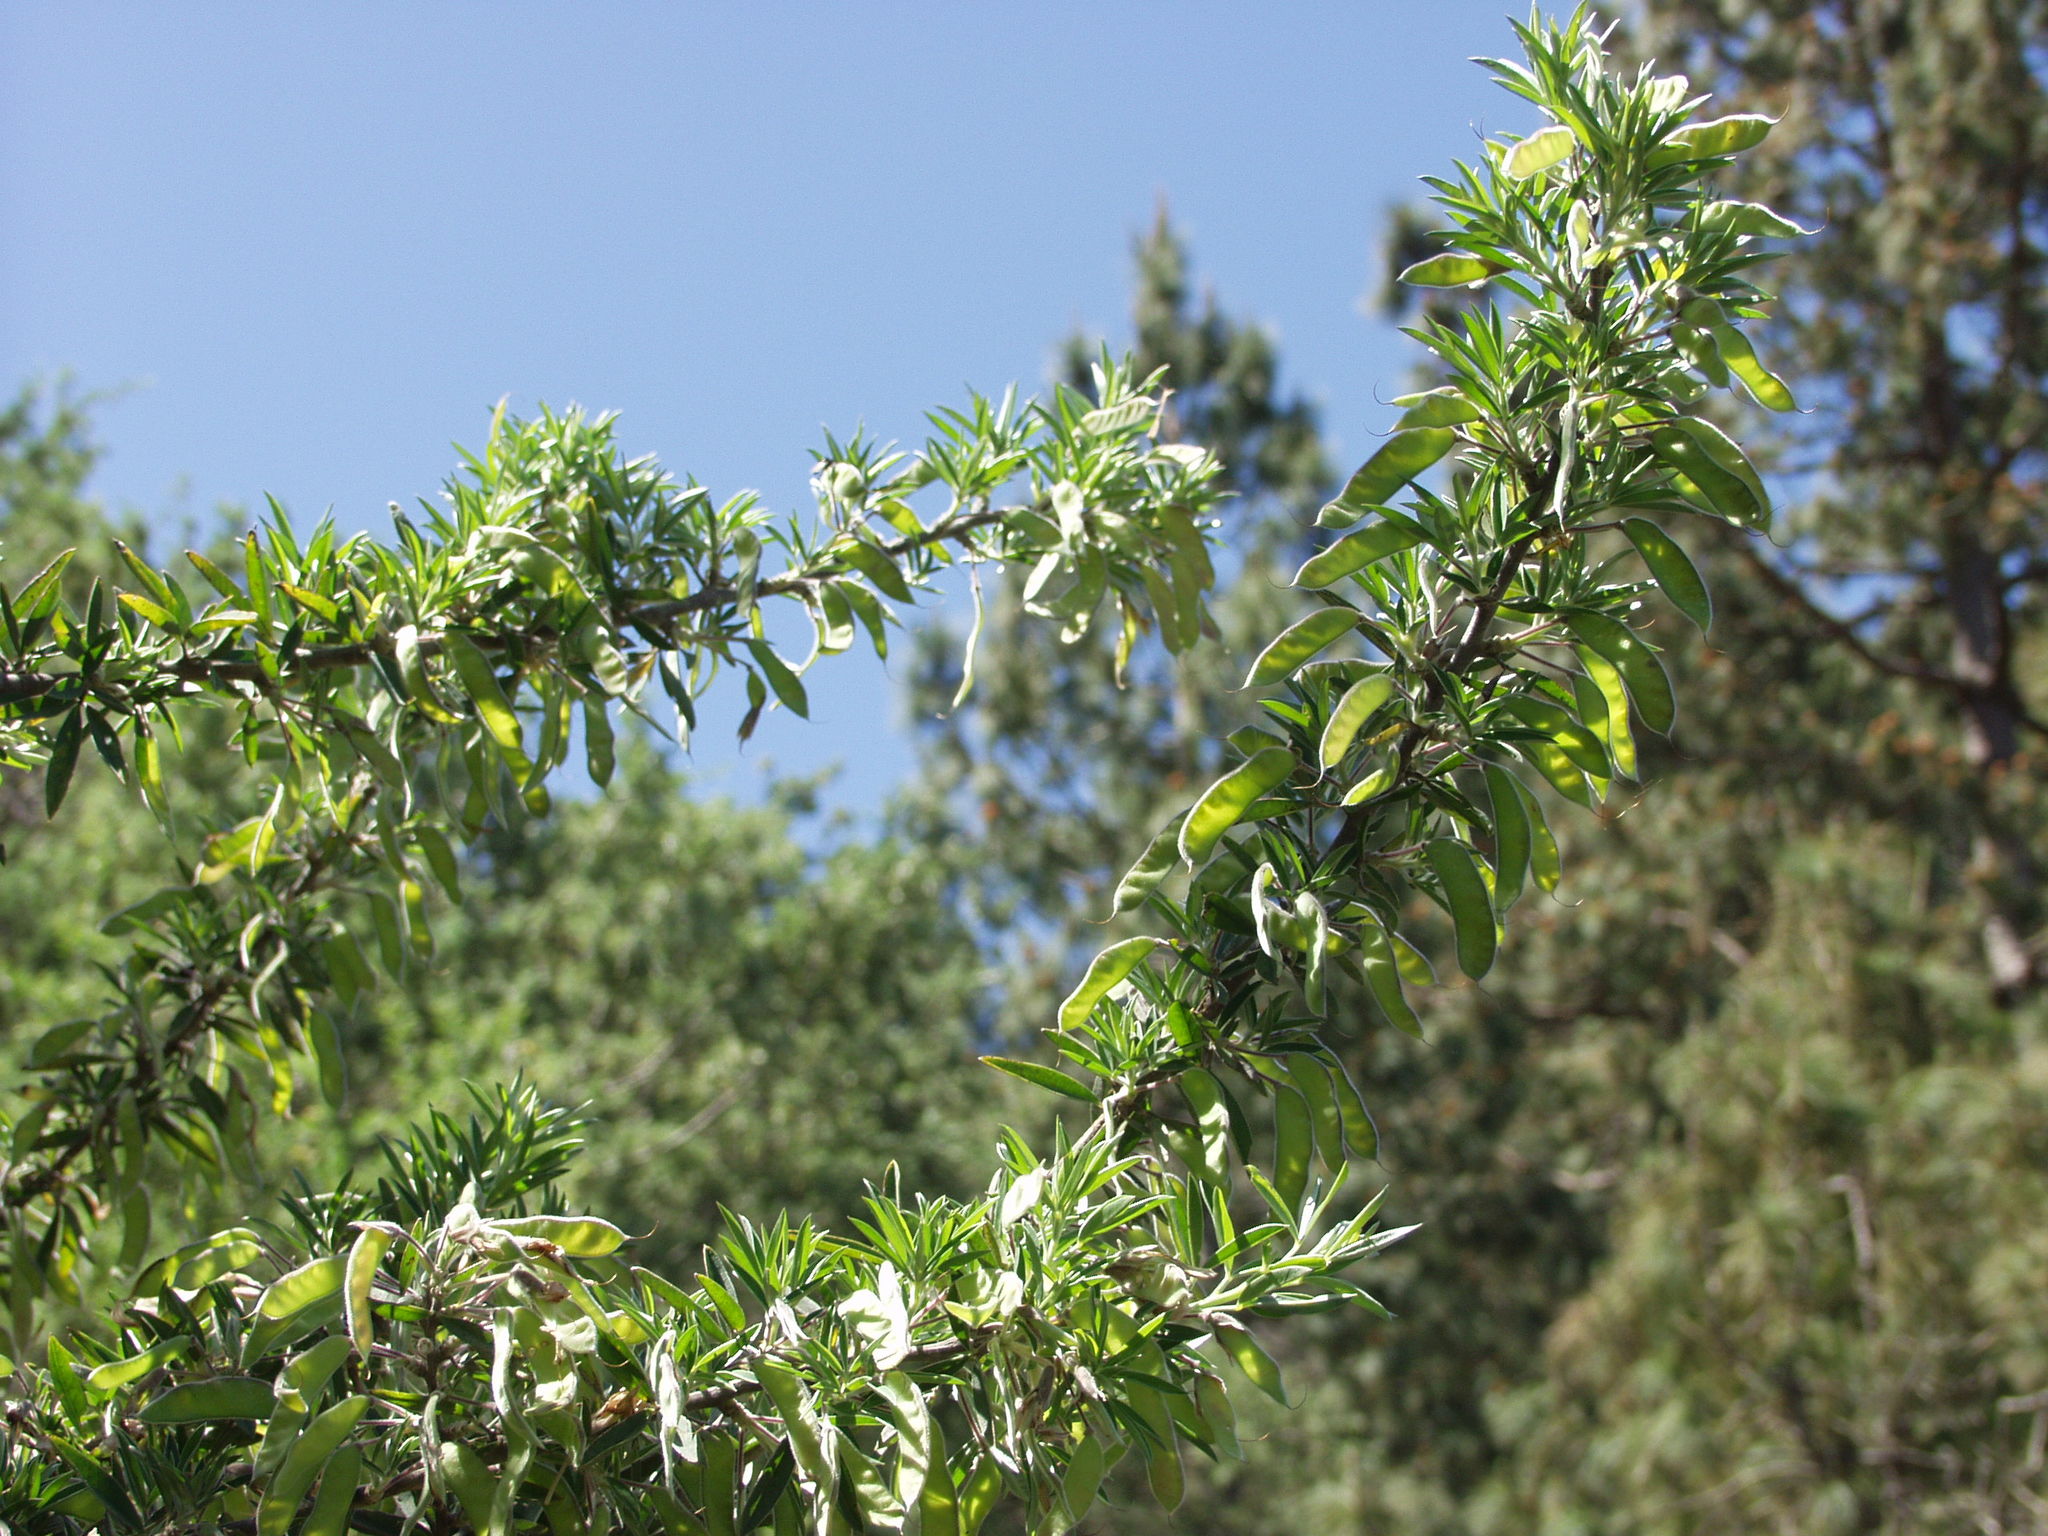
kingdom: Plantae
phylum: Tracheophyta
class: Magnoliopsida
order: Fabales
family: Fabaceae
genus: Chamaecytisus
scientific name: Chamaecytisus prolifer
